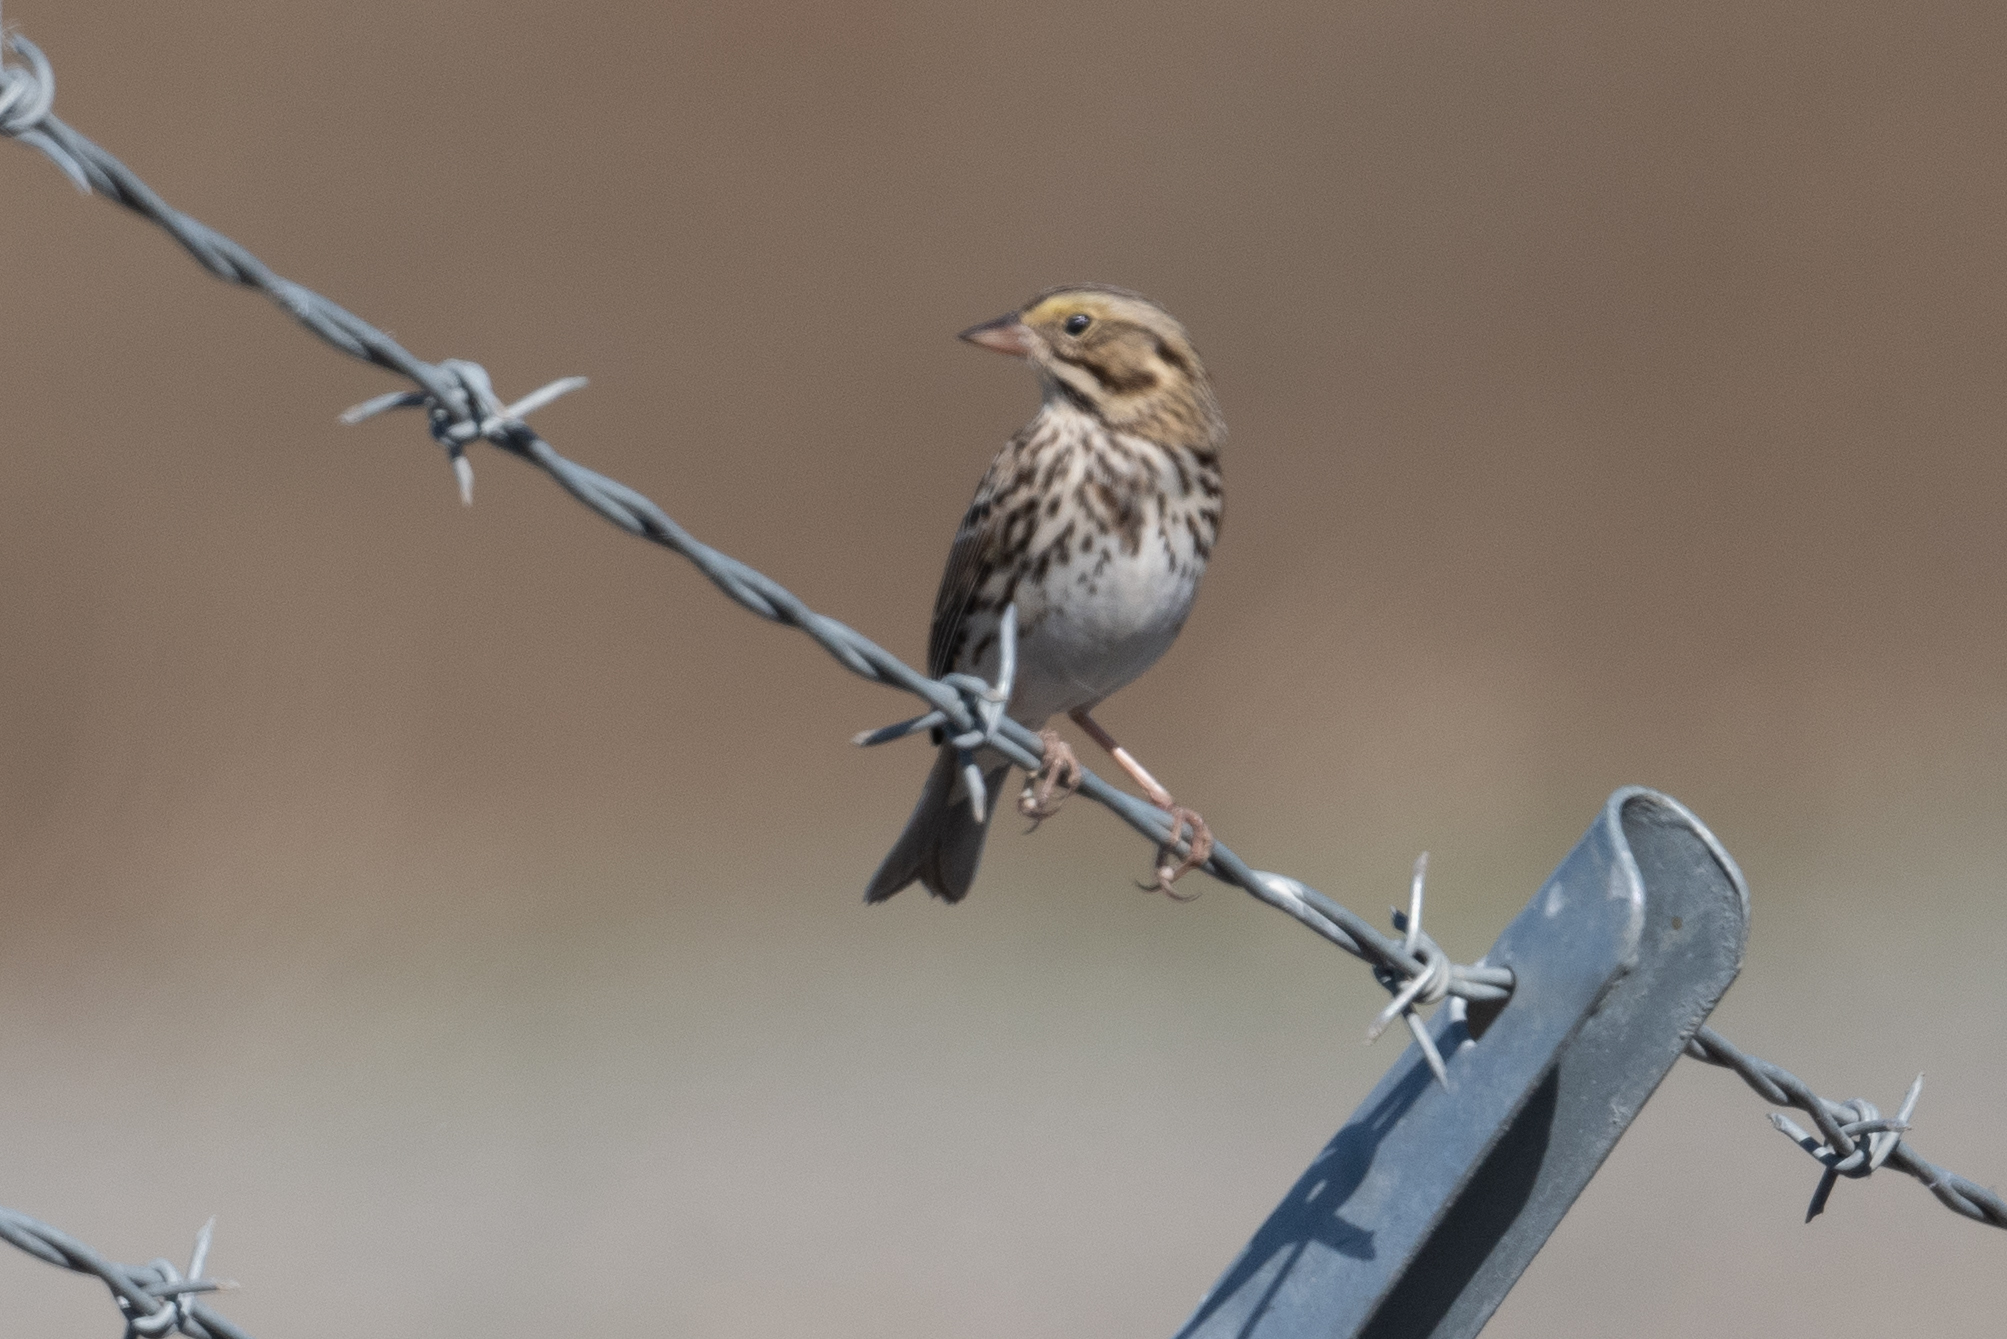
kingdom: Animalia
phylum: Chordata
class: Aves
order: Passeriformes
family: Passerellidae
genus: Passerculus
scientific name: Passerculus sandwichensis
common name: Savannah sparrow
